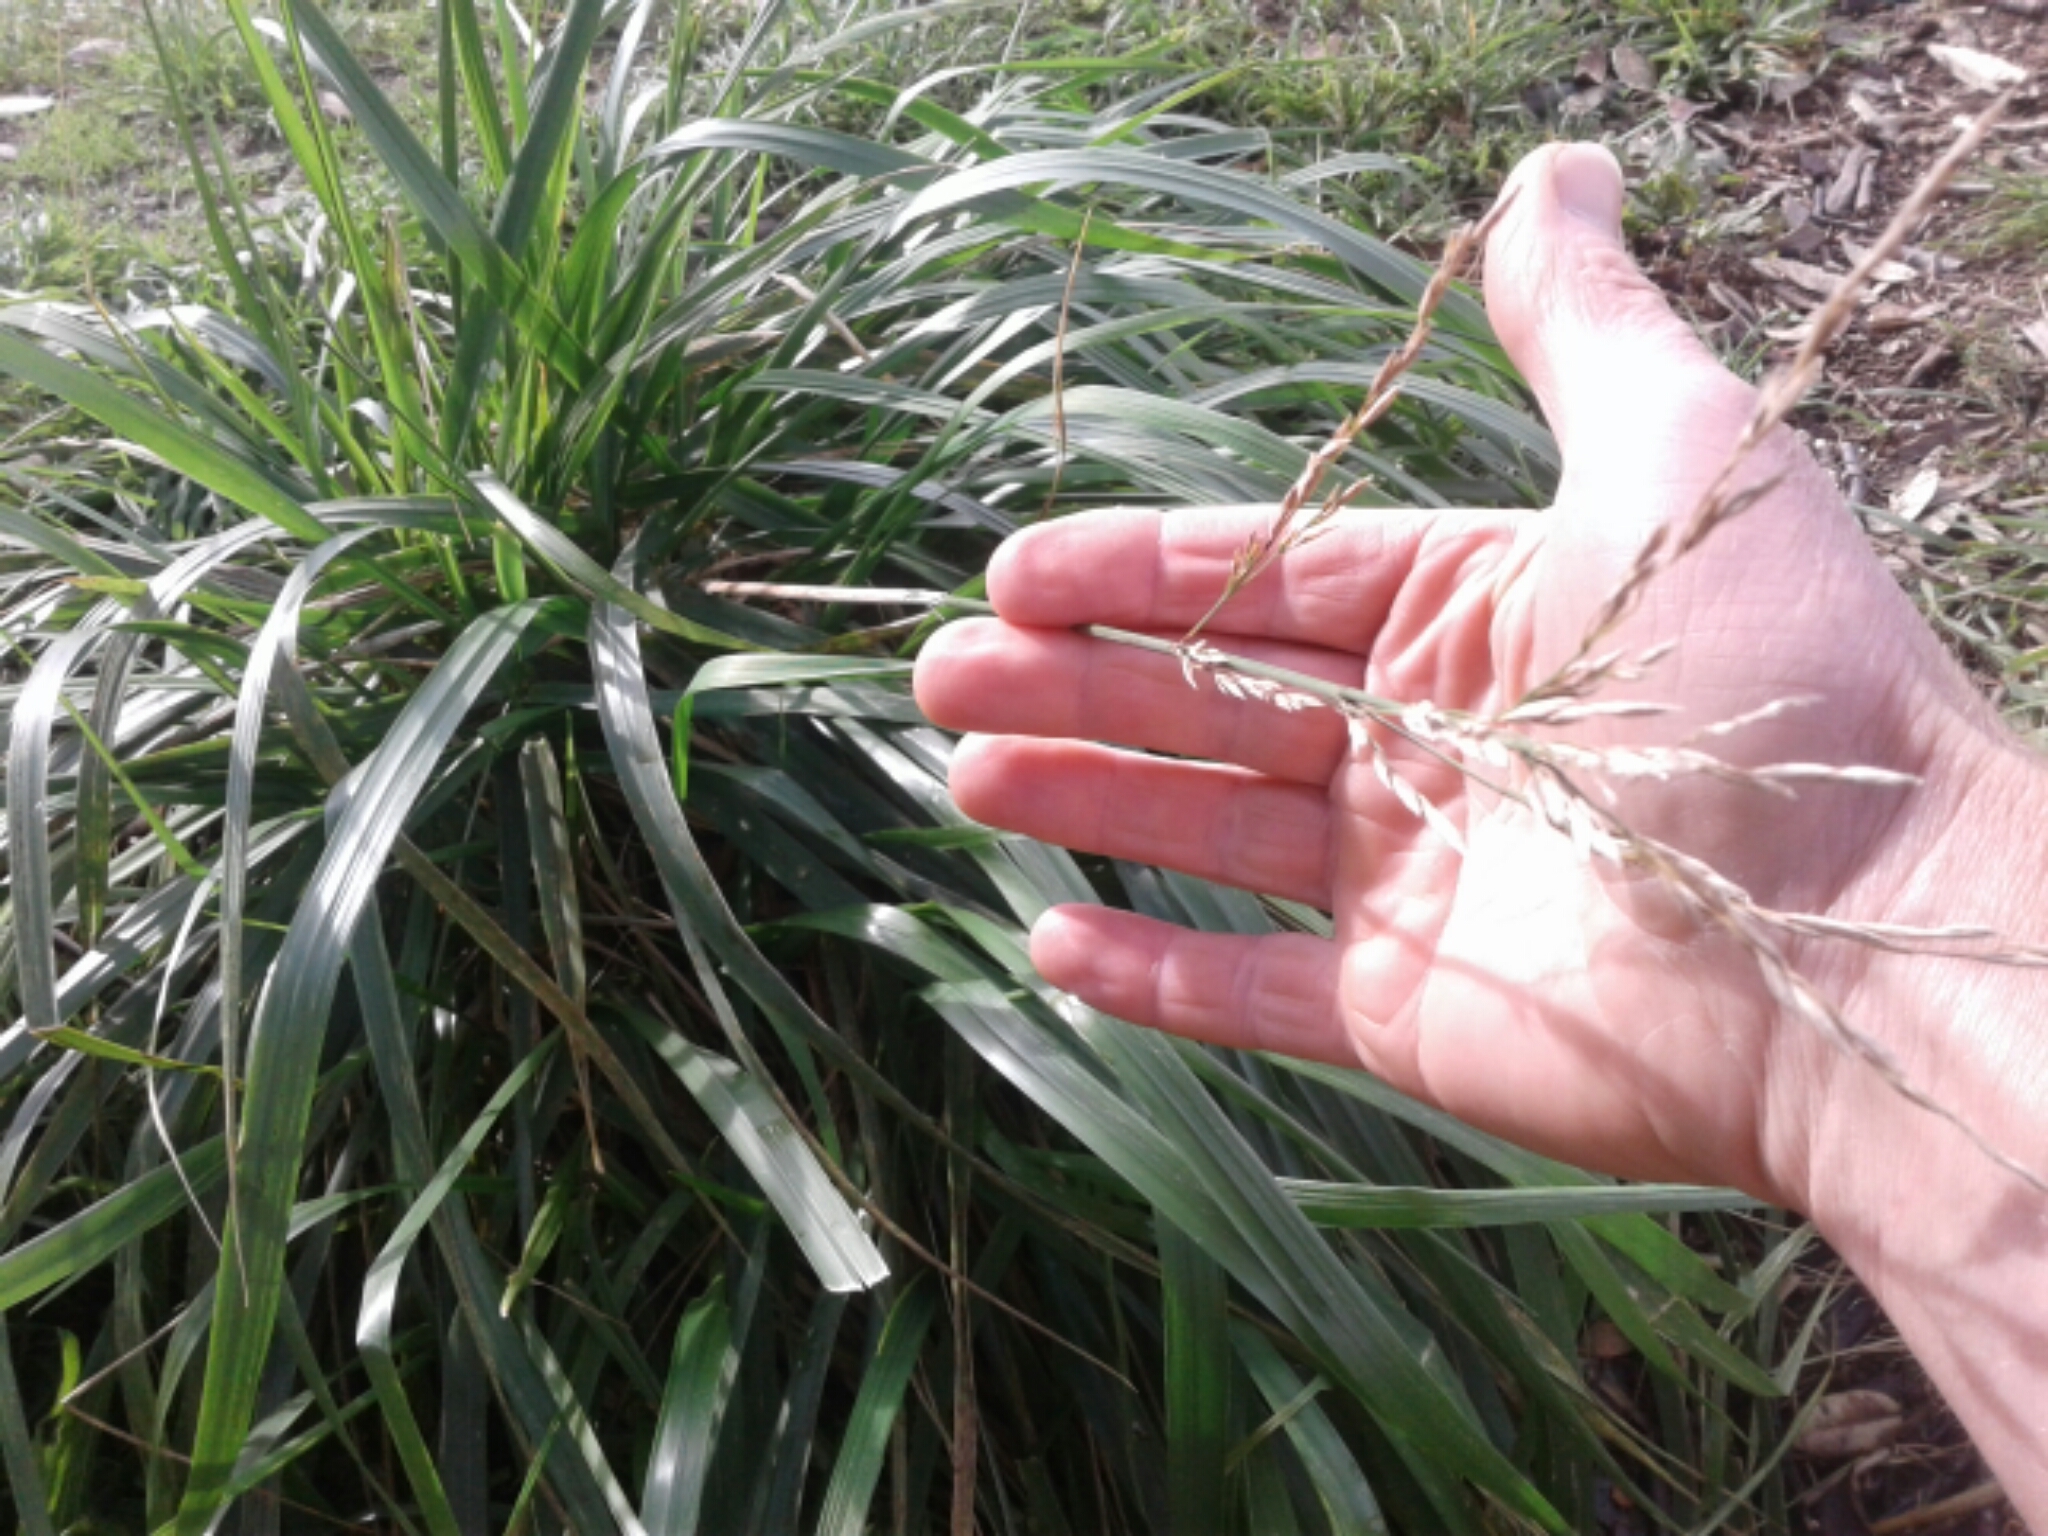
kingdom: Plantae
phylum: Tracheophyta
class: Liliopsida
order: Poales
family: Poaceae
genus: Lolium
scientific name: Lolium arundinaceum
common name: Reed fescue
